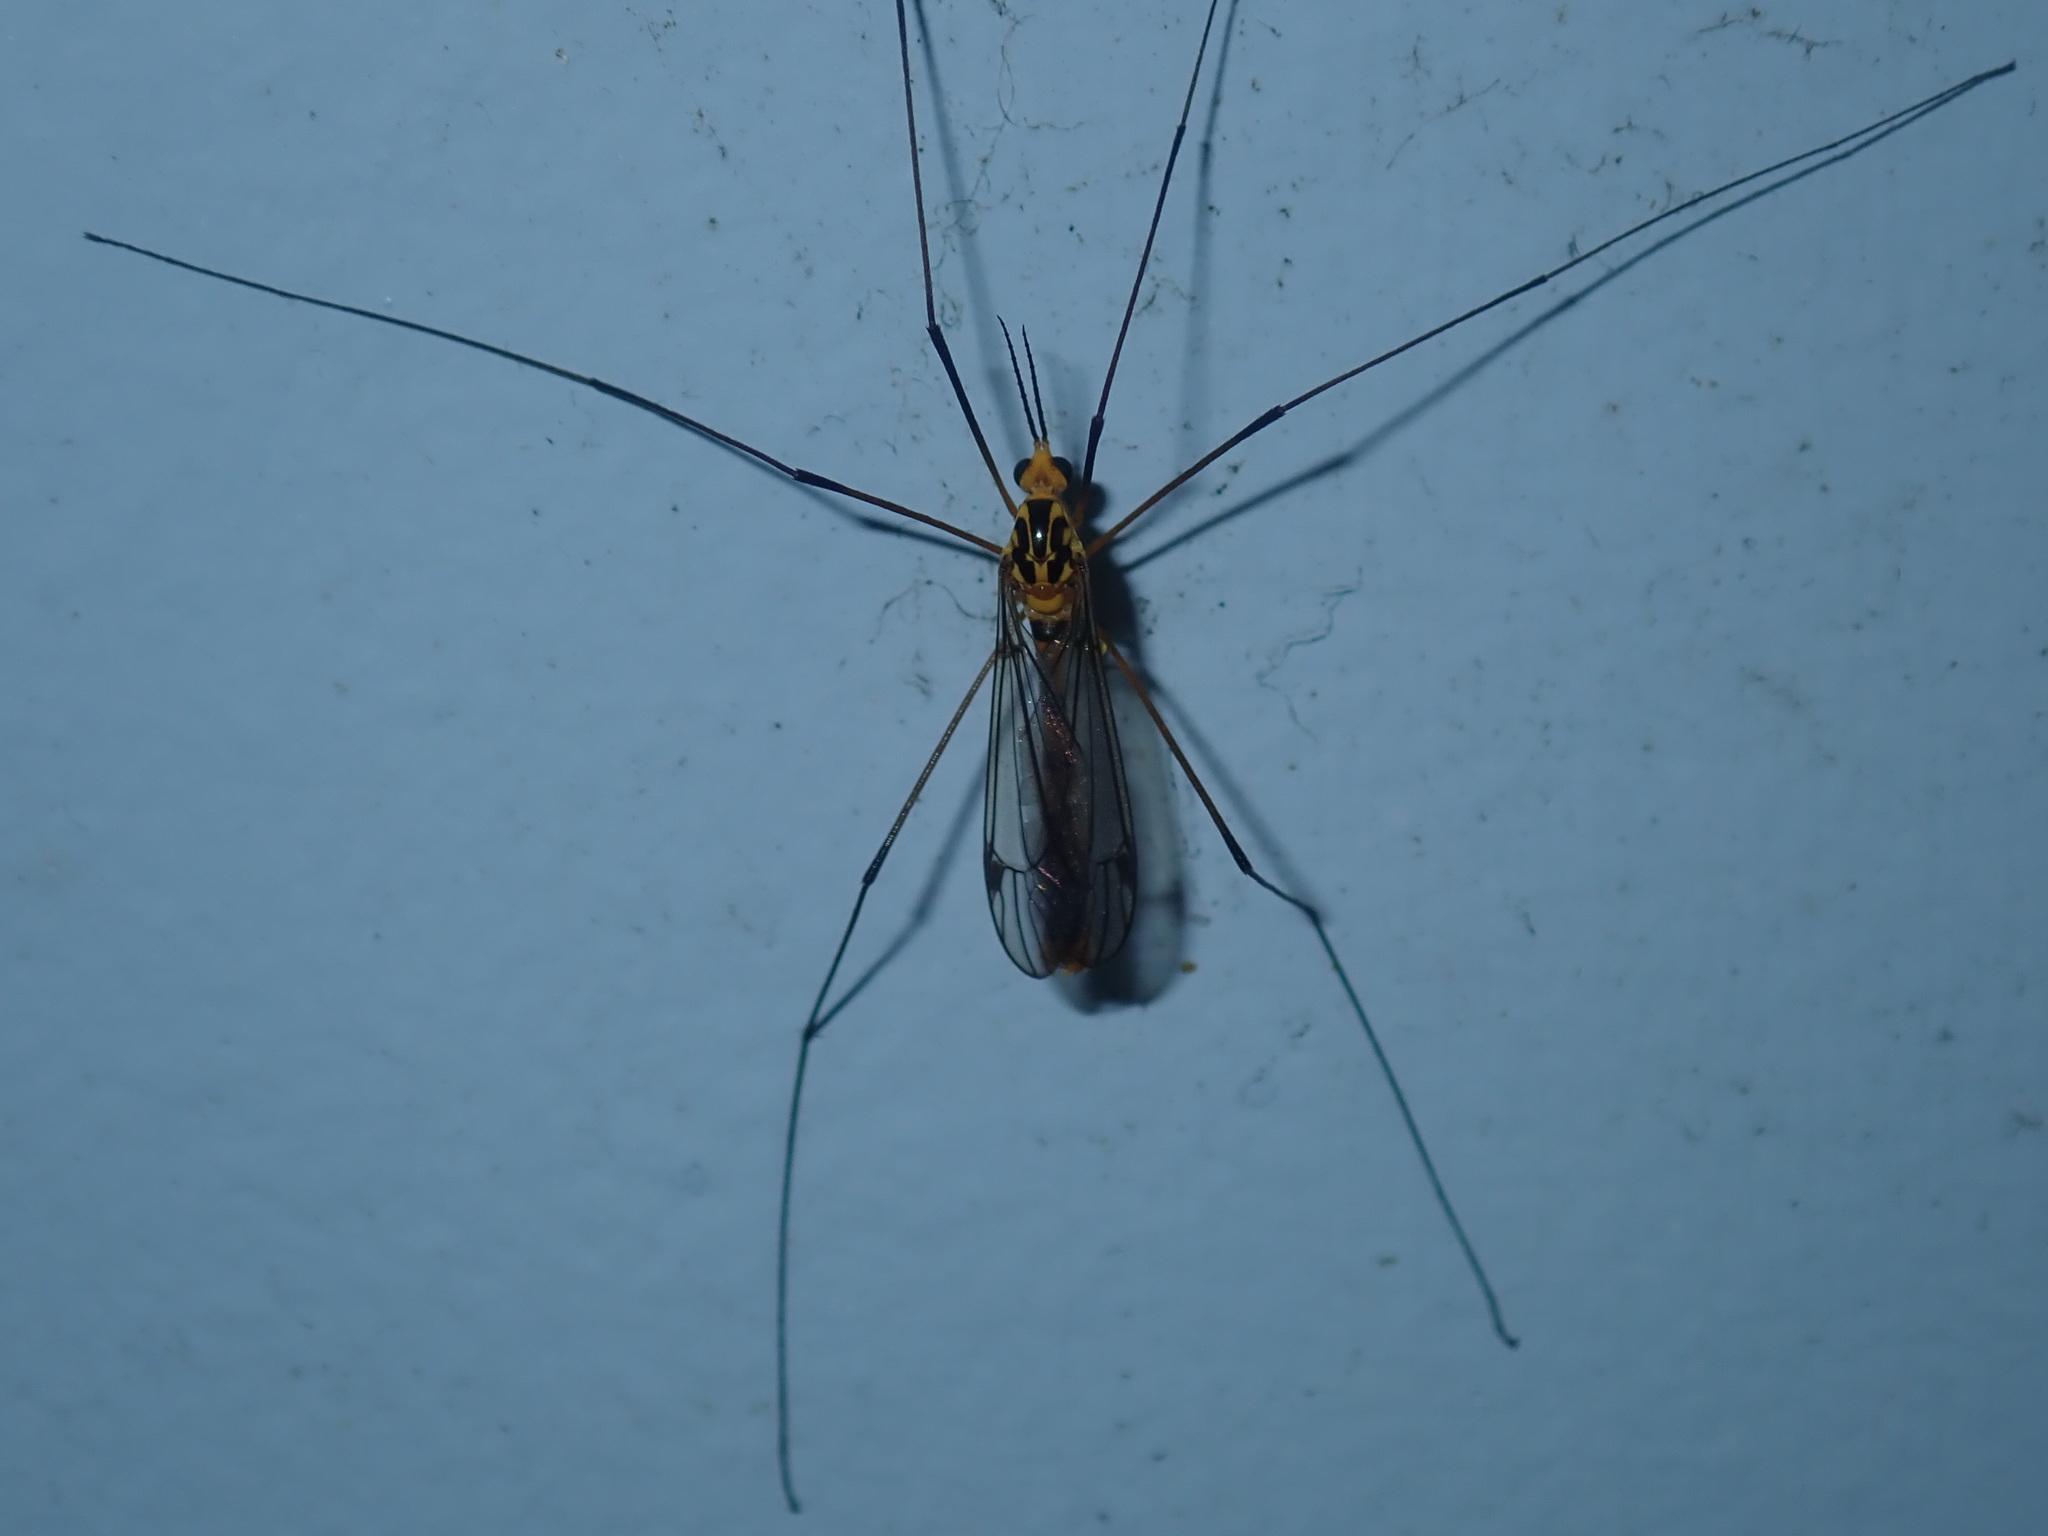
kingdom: Animalia
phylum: Arthropoda
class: Insecta
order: Diptera
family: Tipulidae
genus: Nephrotoma
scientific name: Nephrotoma australasiae
